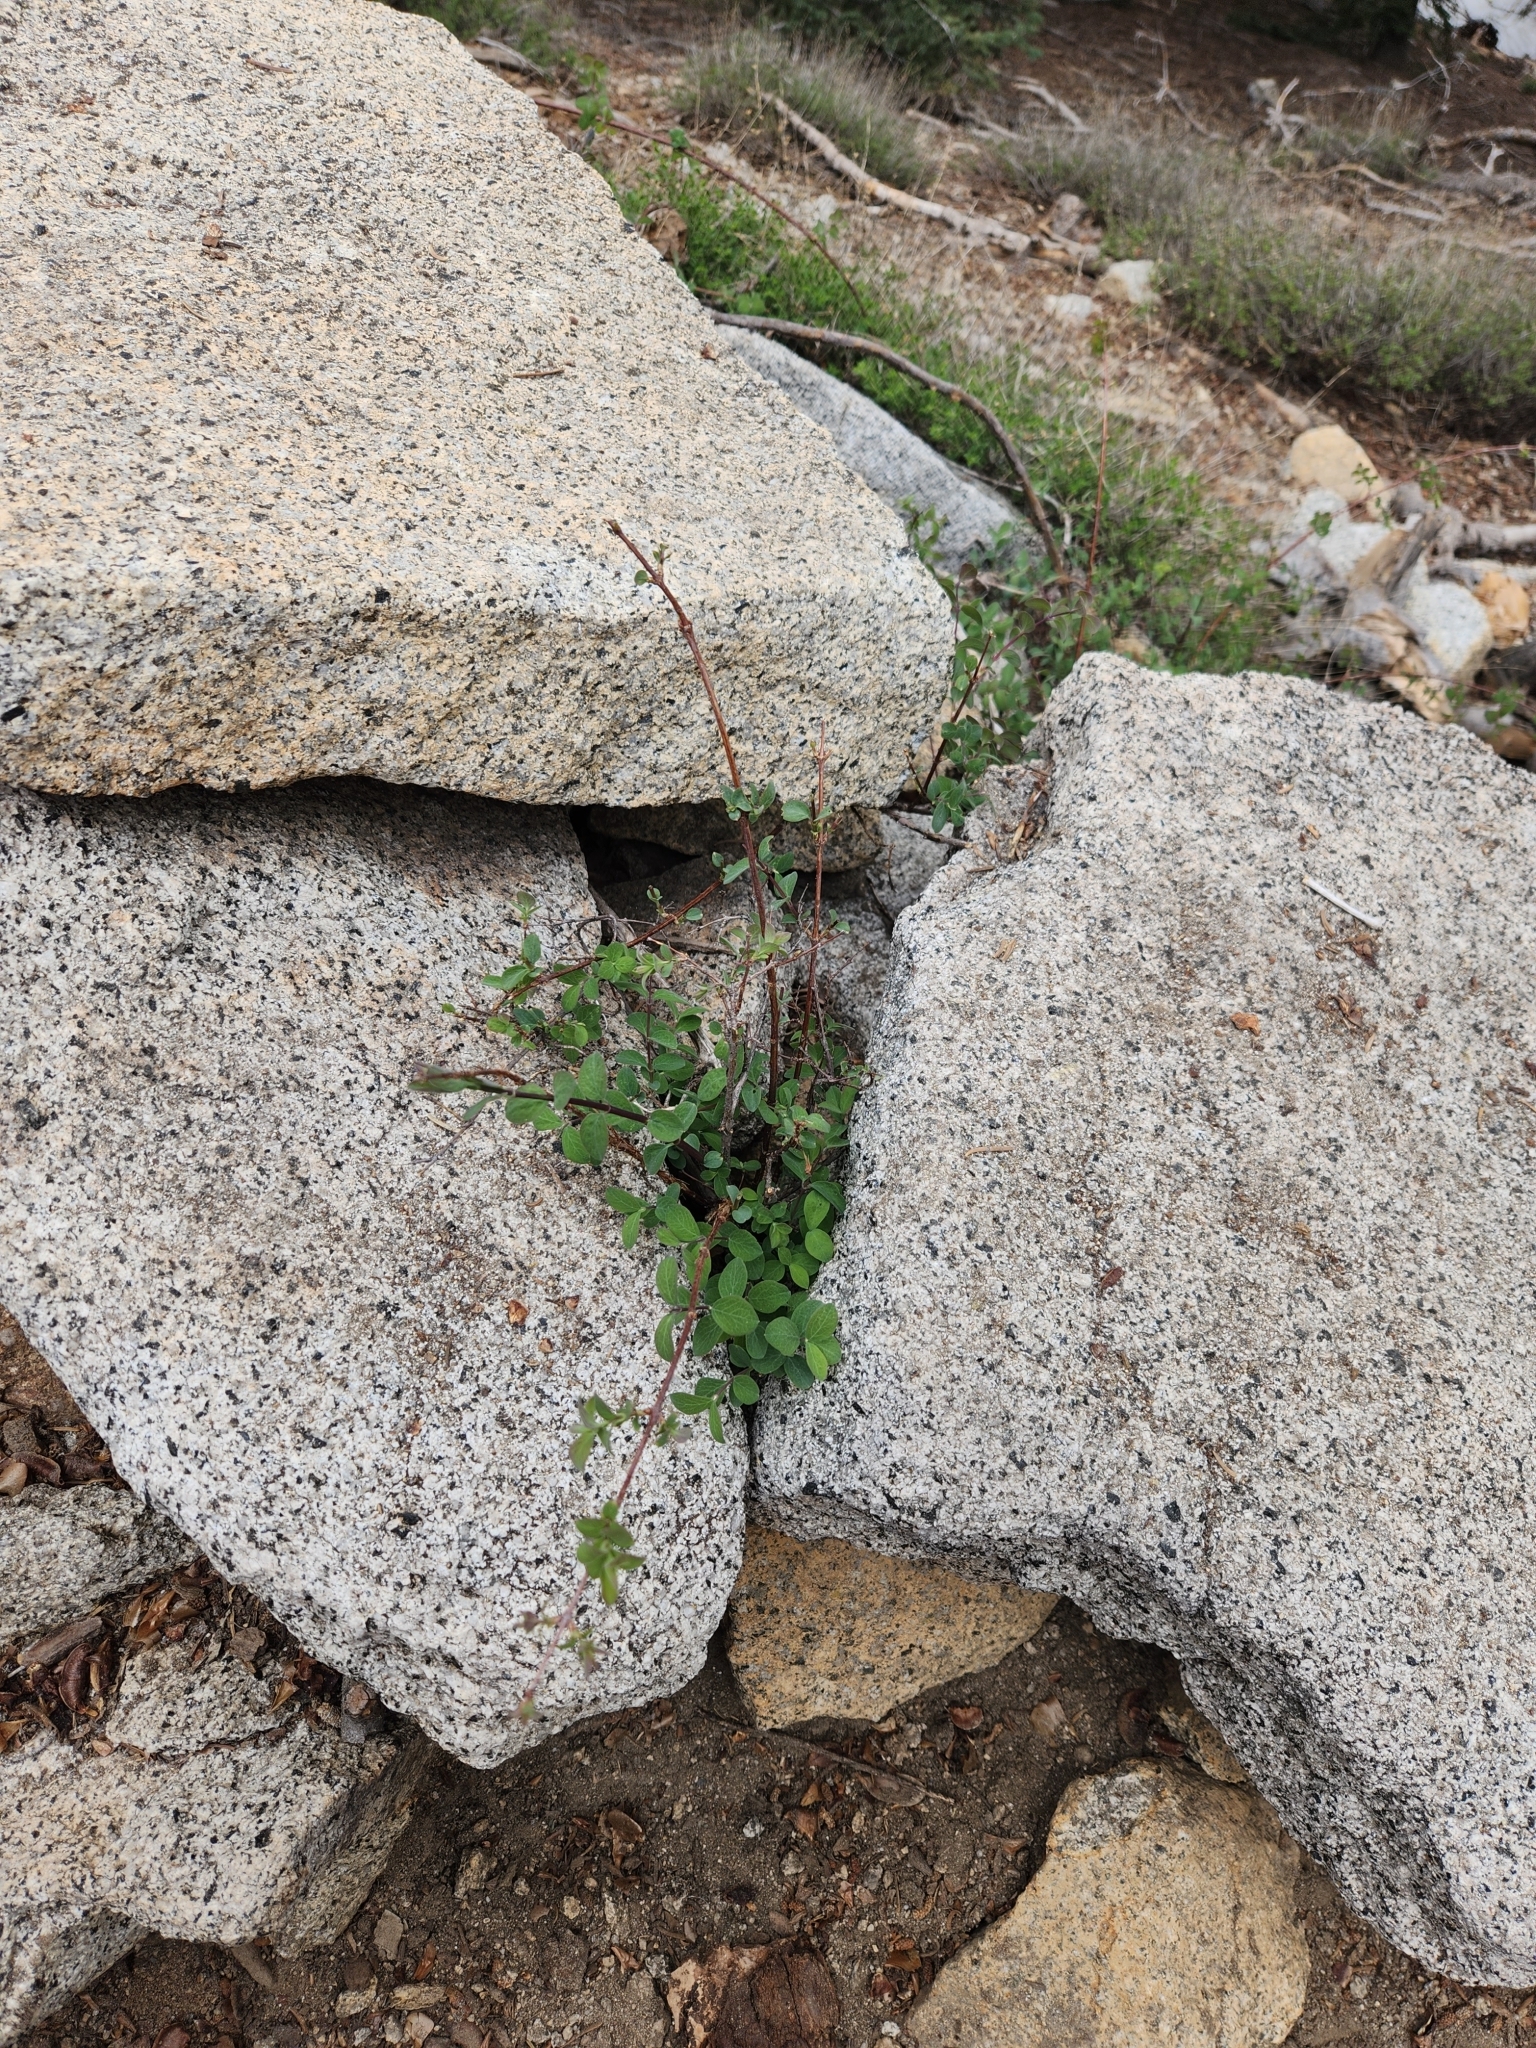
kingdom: Plantae
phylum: Tracheophyta
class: Magnoliopsida
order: Dipsacales
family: Caprifoliaceae
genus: Symphoricarpos
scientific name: Symphoricarpos rotundifolius
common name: Round-leaved snowberry
